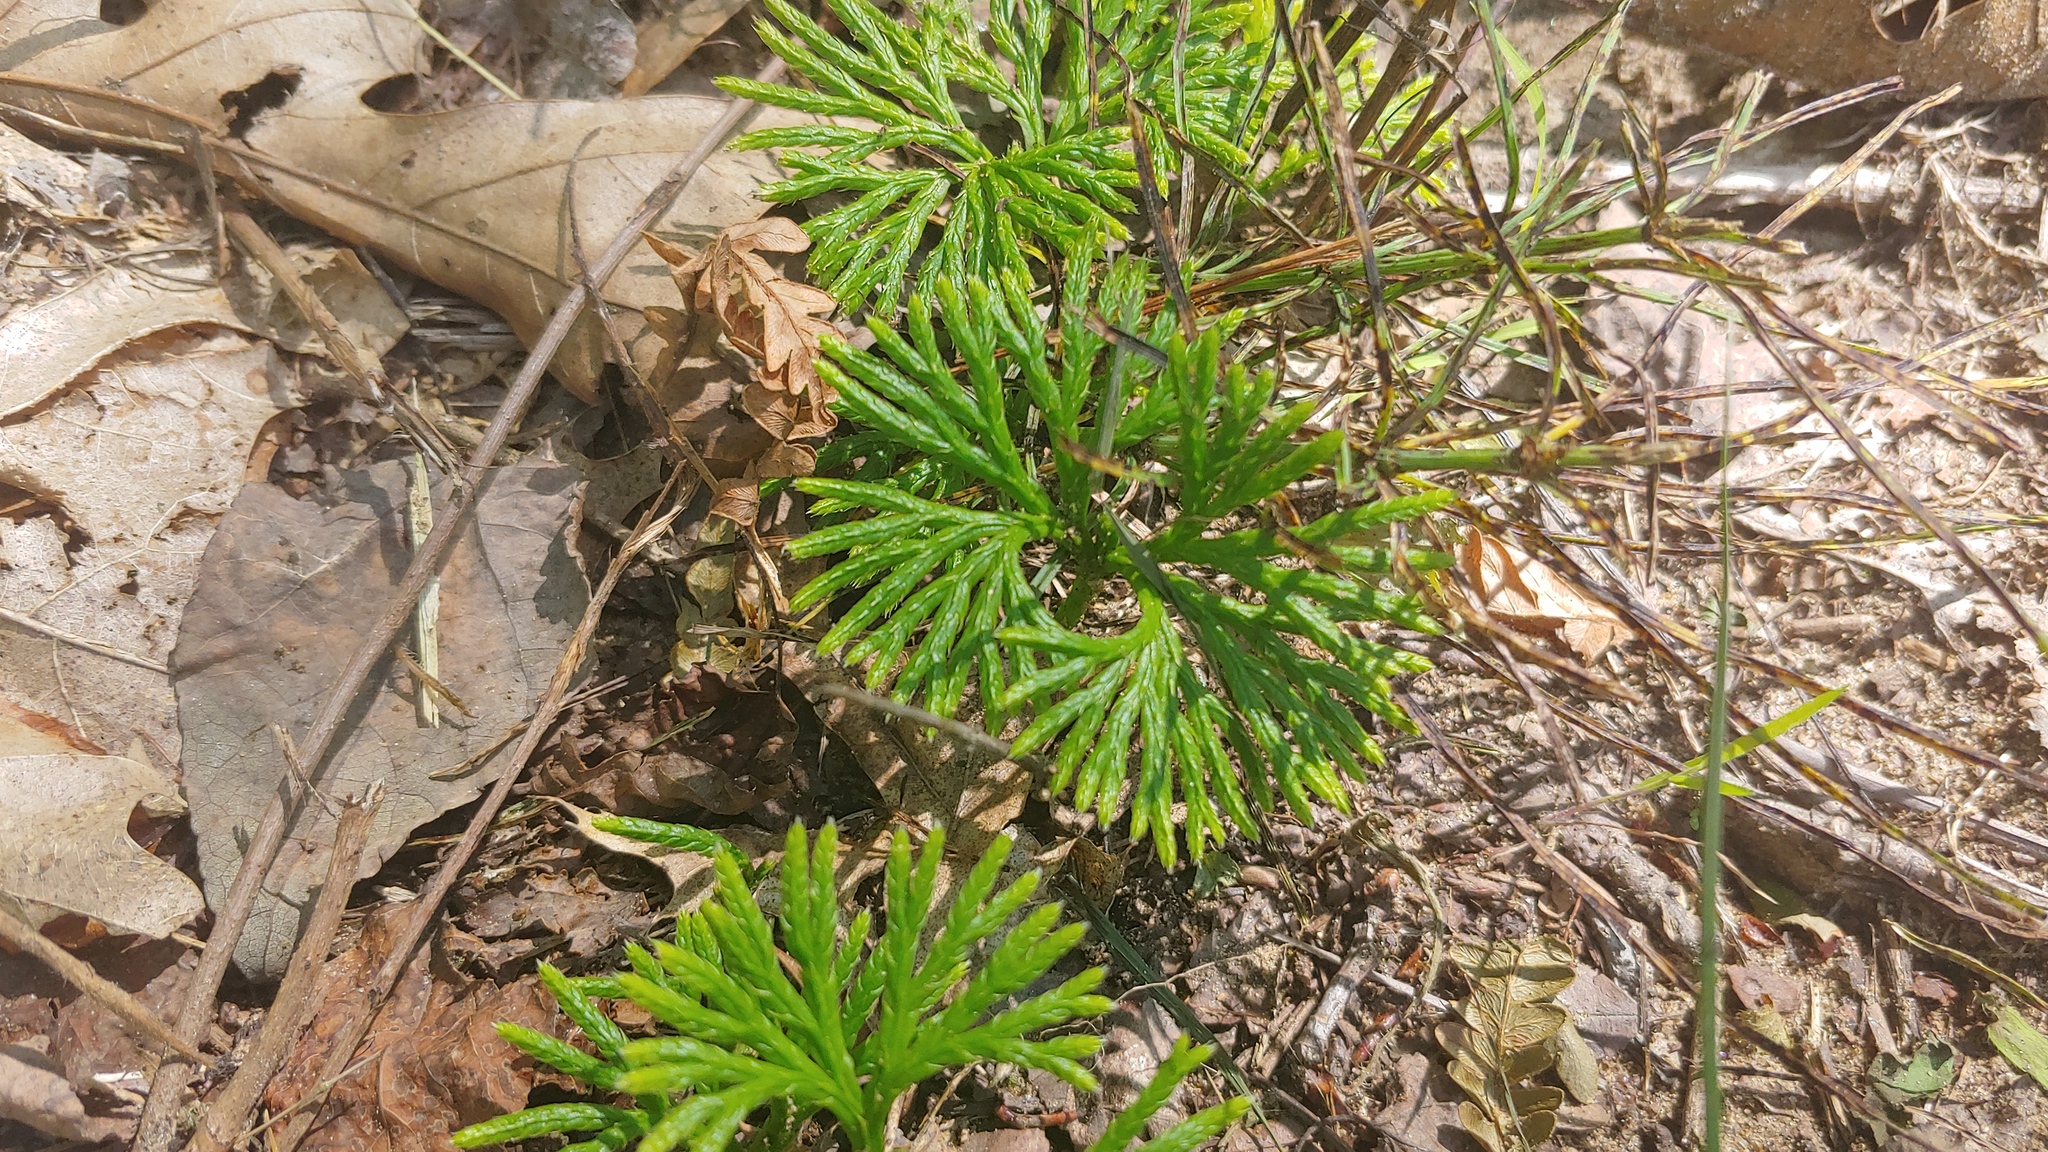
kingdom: Plantae
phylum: Tracheophyta
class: Lycopodiopsida
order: Lycopodiales
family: Lycopodiaceae
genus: Diphasiastrum
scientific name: Diphasiastrum digitatum
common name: Southern running-pine
